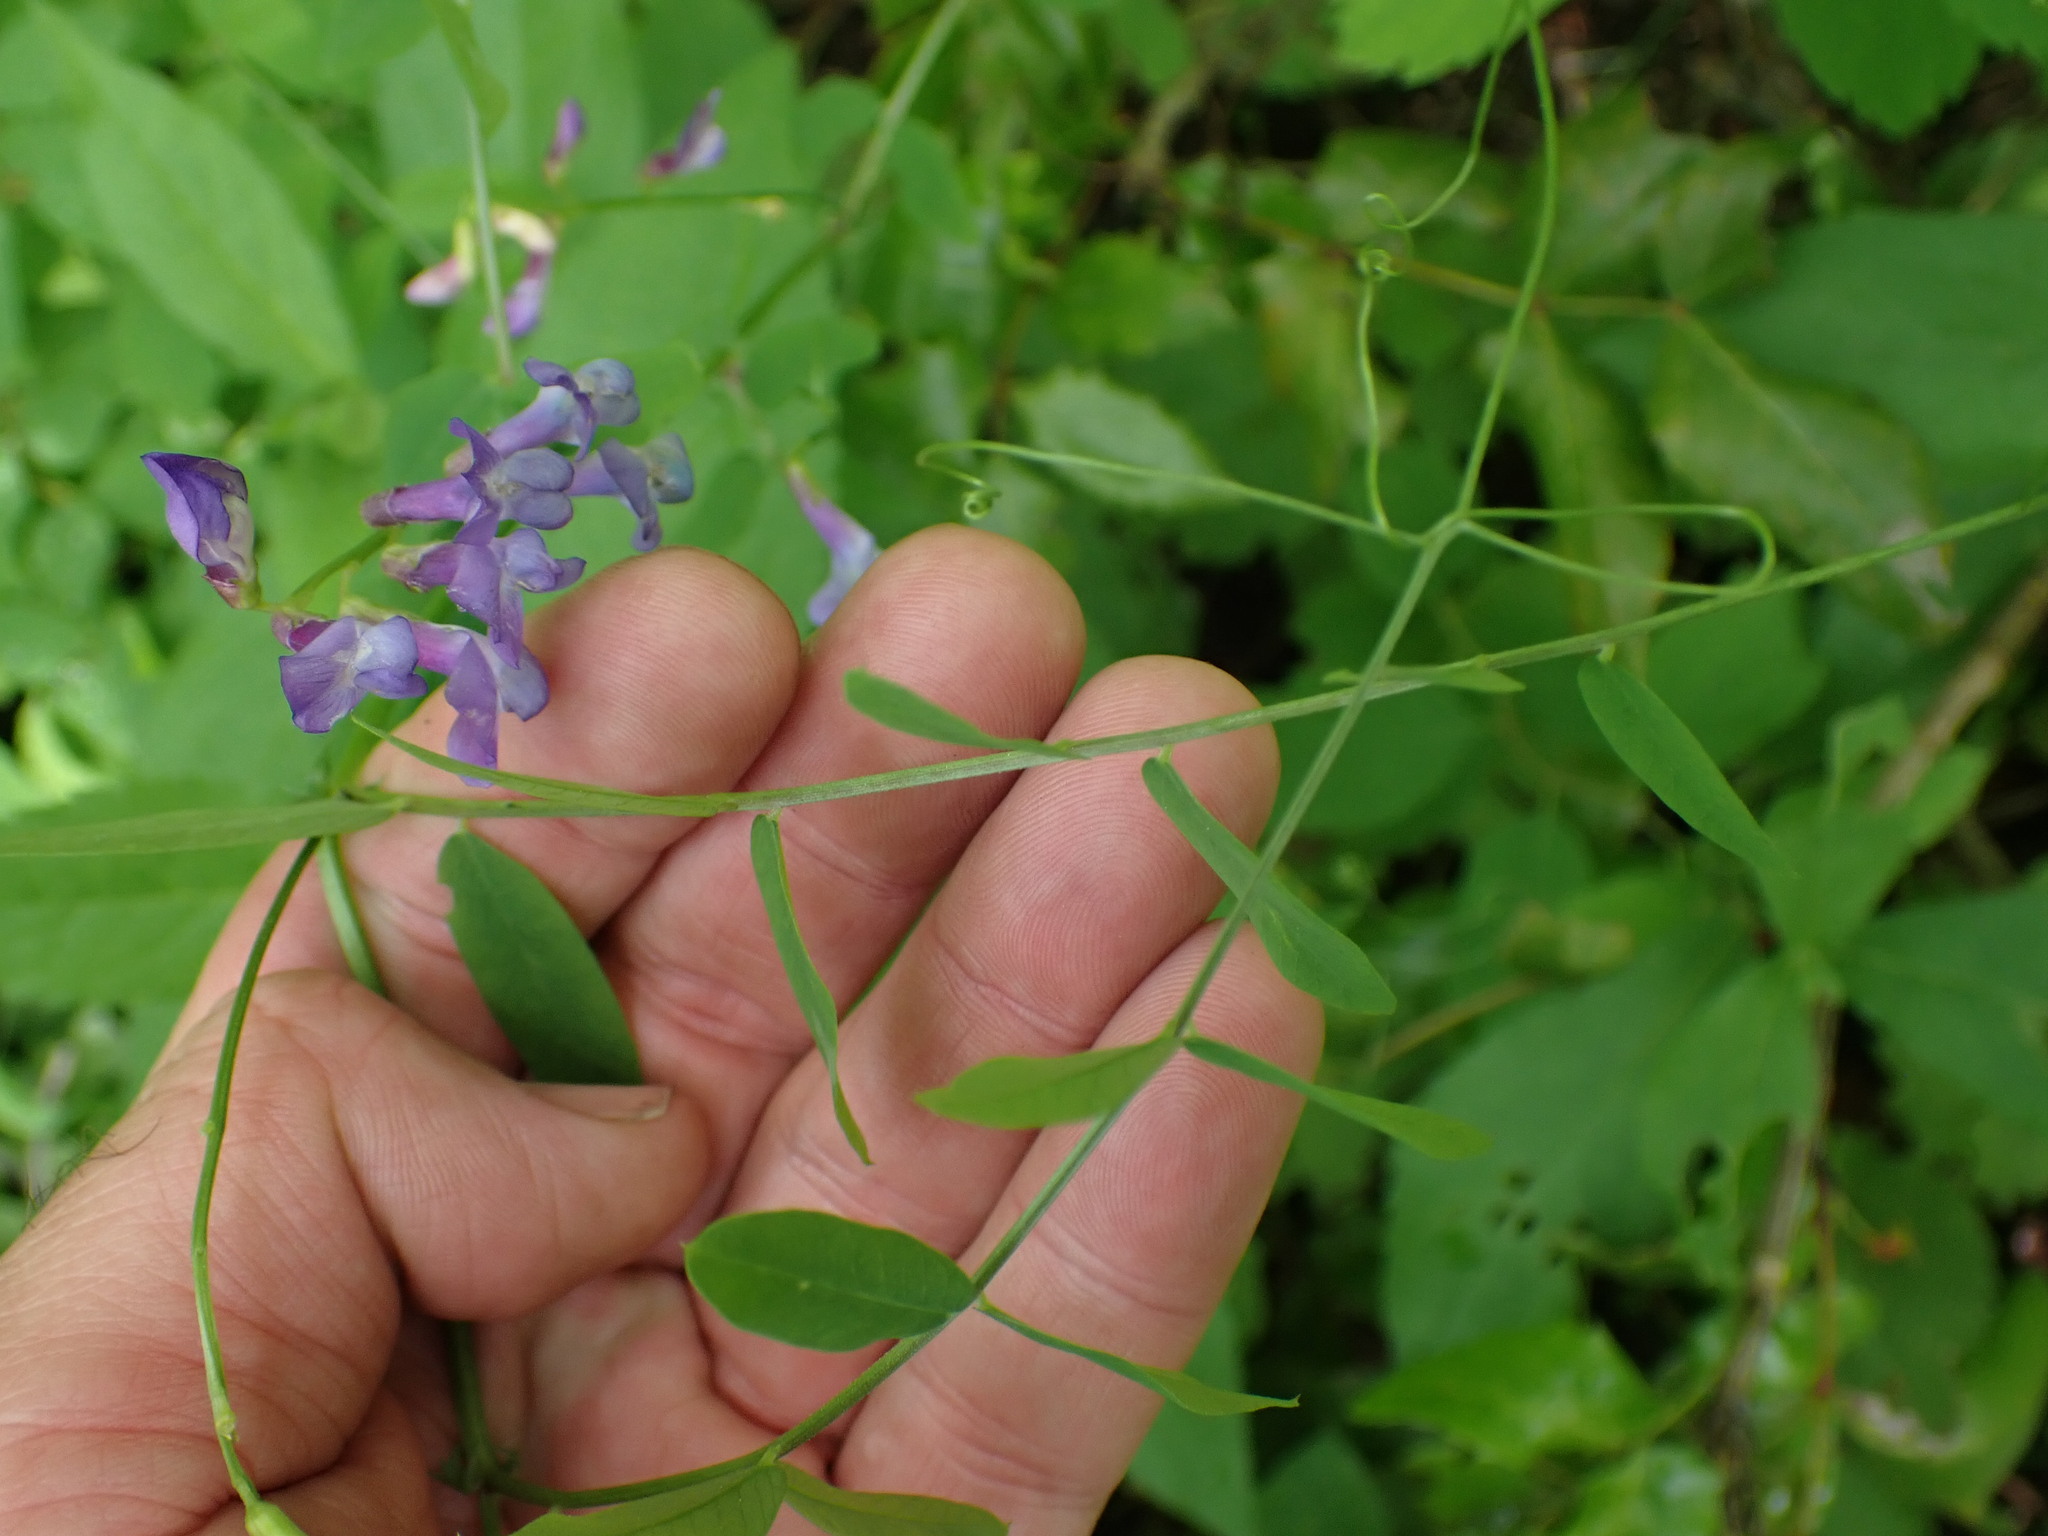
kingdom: Plantae
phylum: Tracheophyta
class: Magnoliopsida
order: Fabales
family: Fabaceae
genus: Vicia
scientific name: Vicia americana
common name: American vetch
